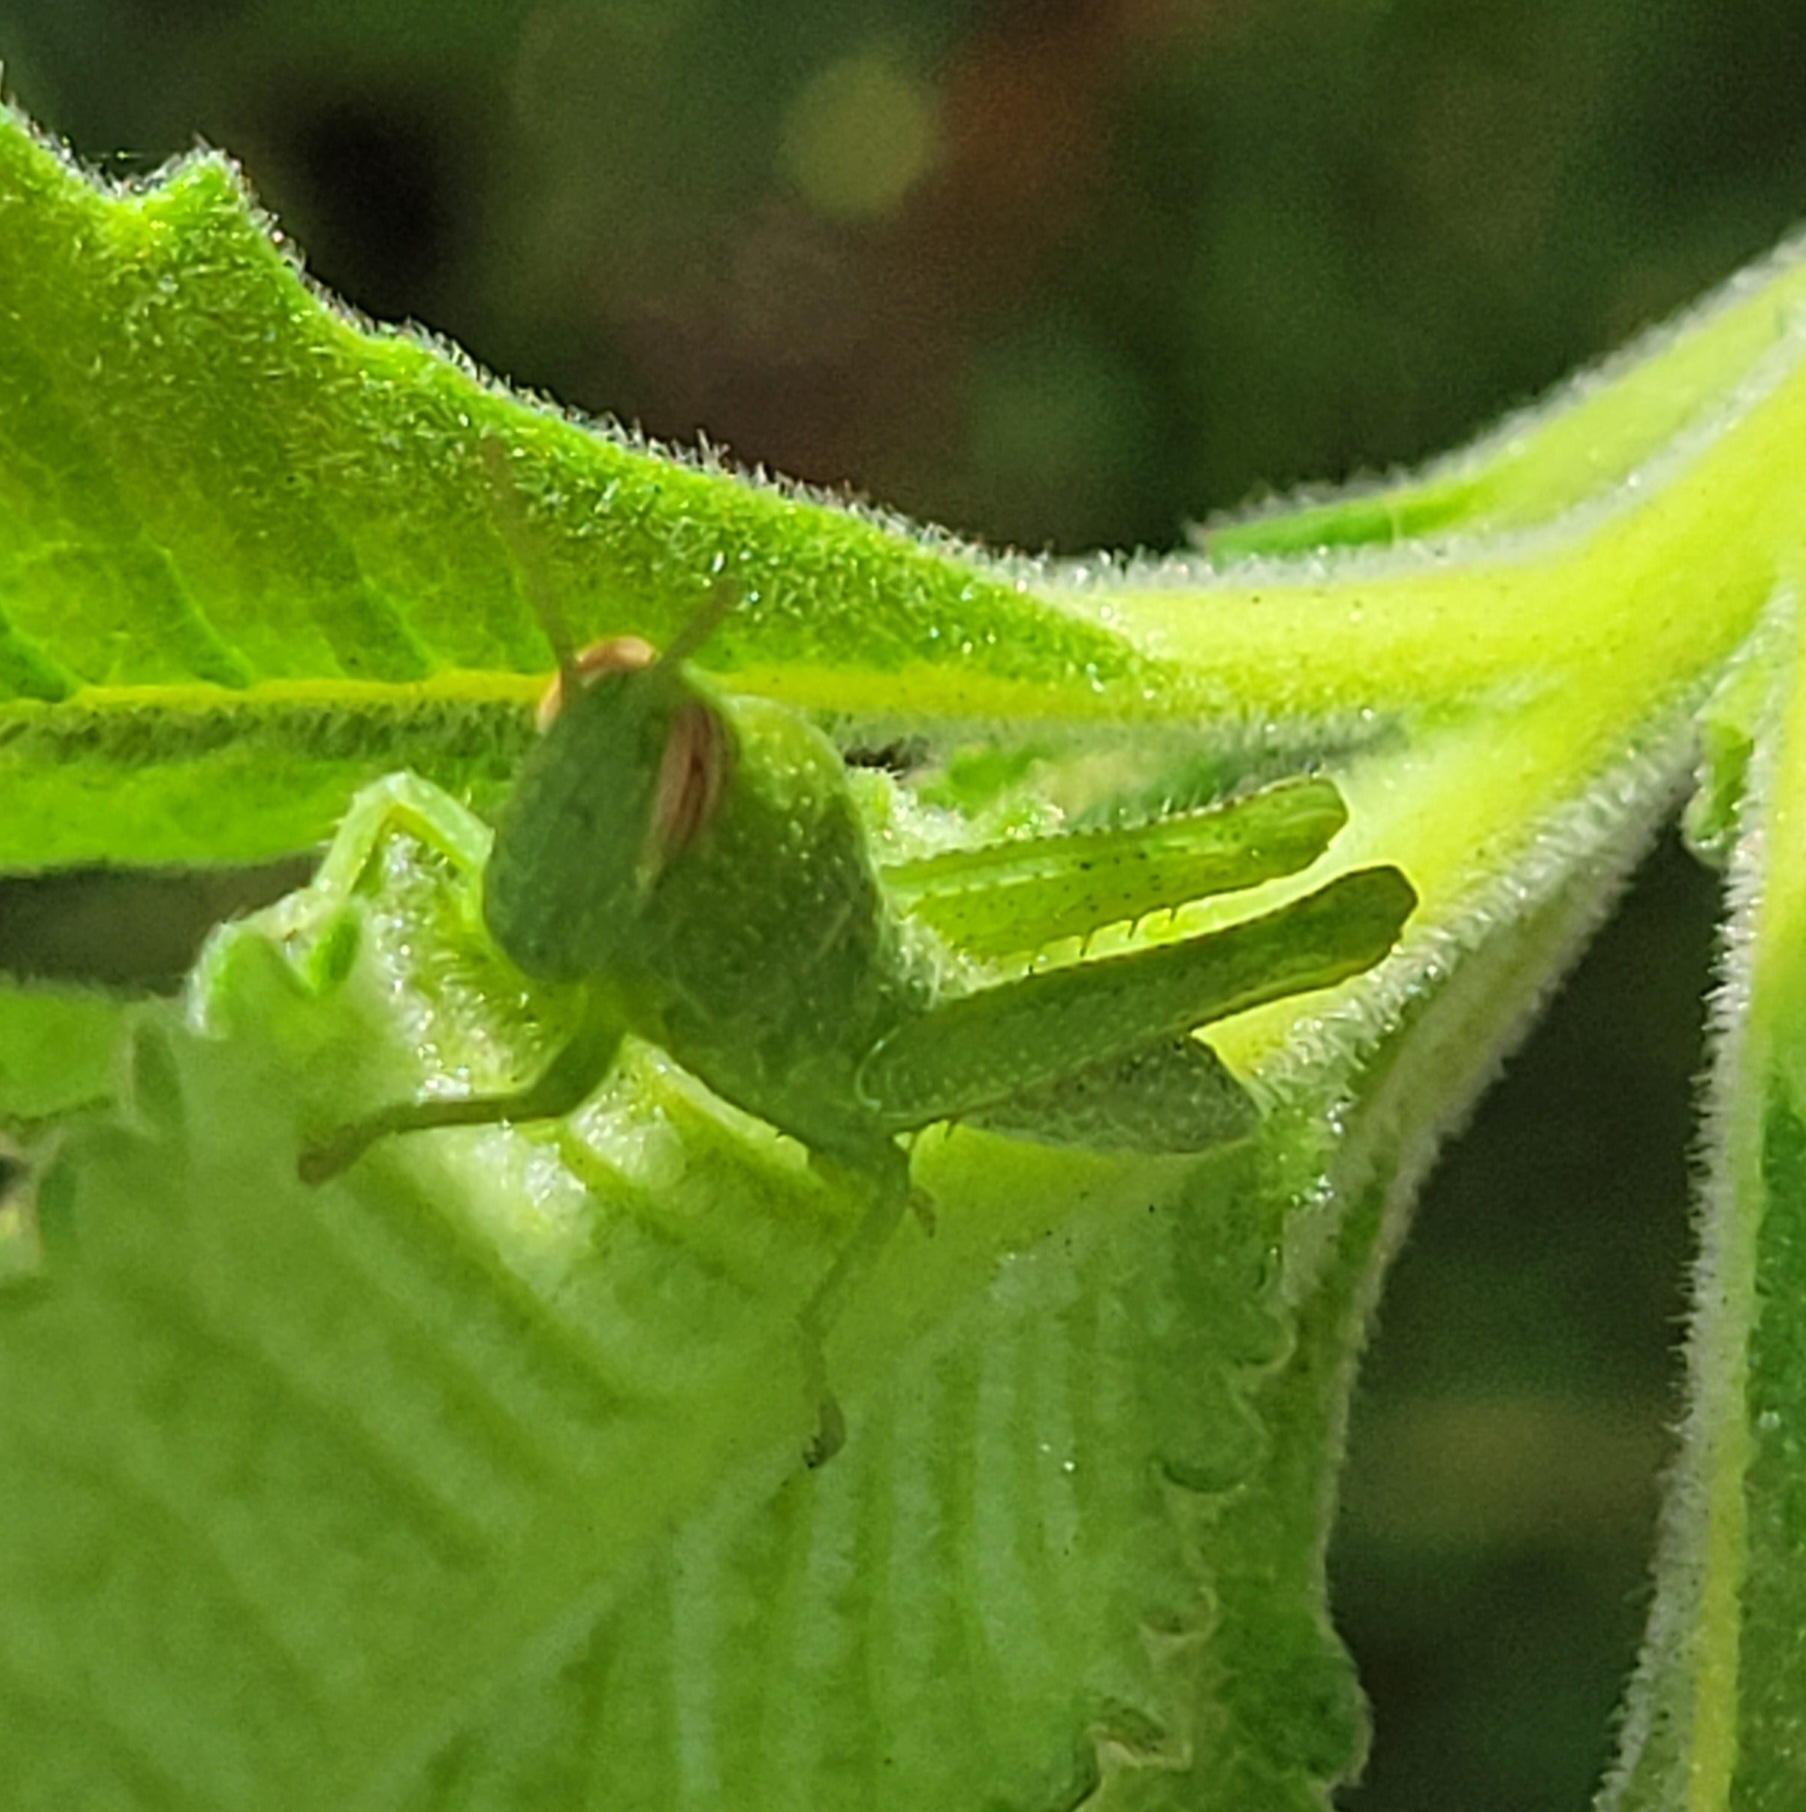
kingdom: Animalia
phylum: Arthropoda
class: Insecta
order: Orthoptera
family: Acrididae
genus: Schistocerca
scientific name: Schistocerca nitens
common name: Vagrant grasshopper
